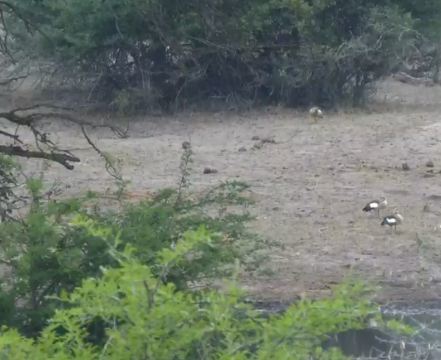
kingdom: Animalia
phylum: Chordata
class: Aves
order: Anseriformes
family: Anatidae
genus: Alopochen
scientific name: Alopochen aegyptiaca
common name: Egyptian goose
